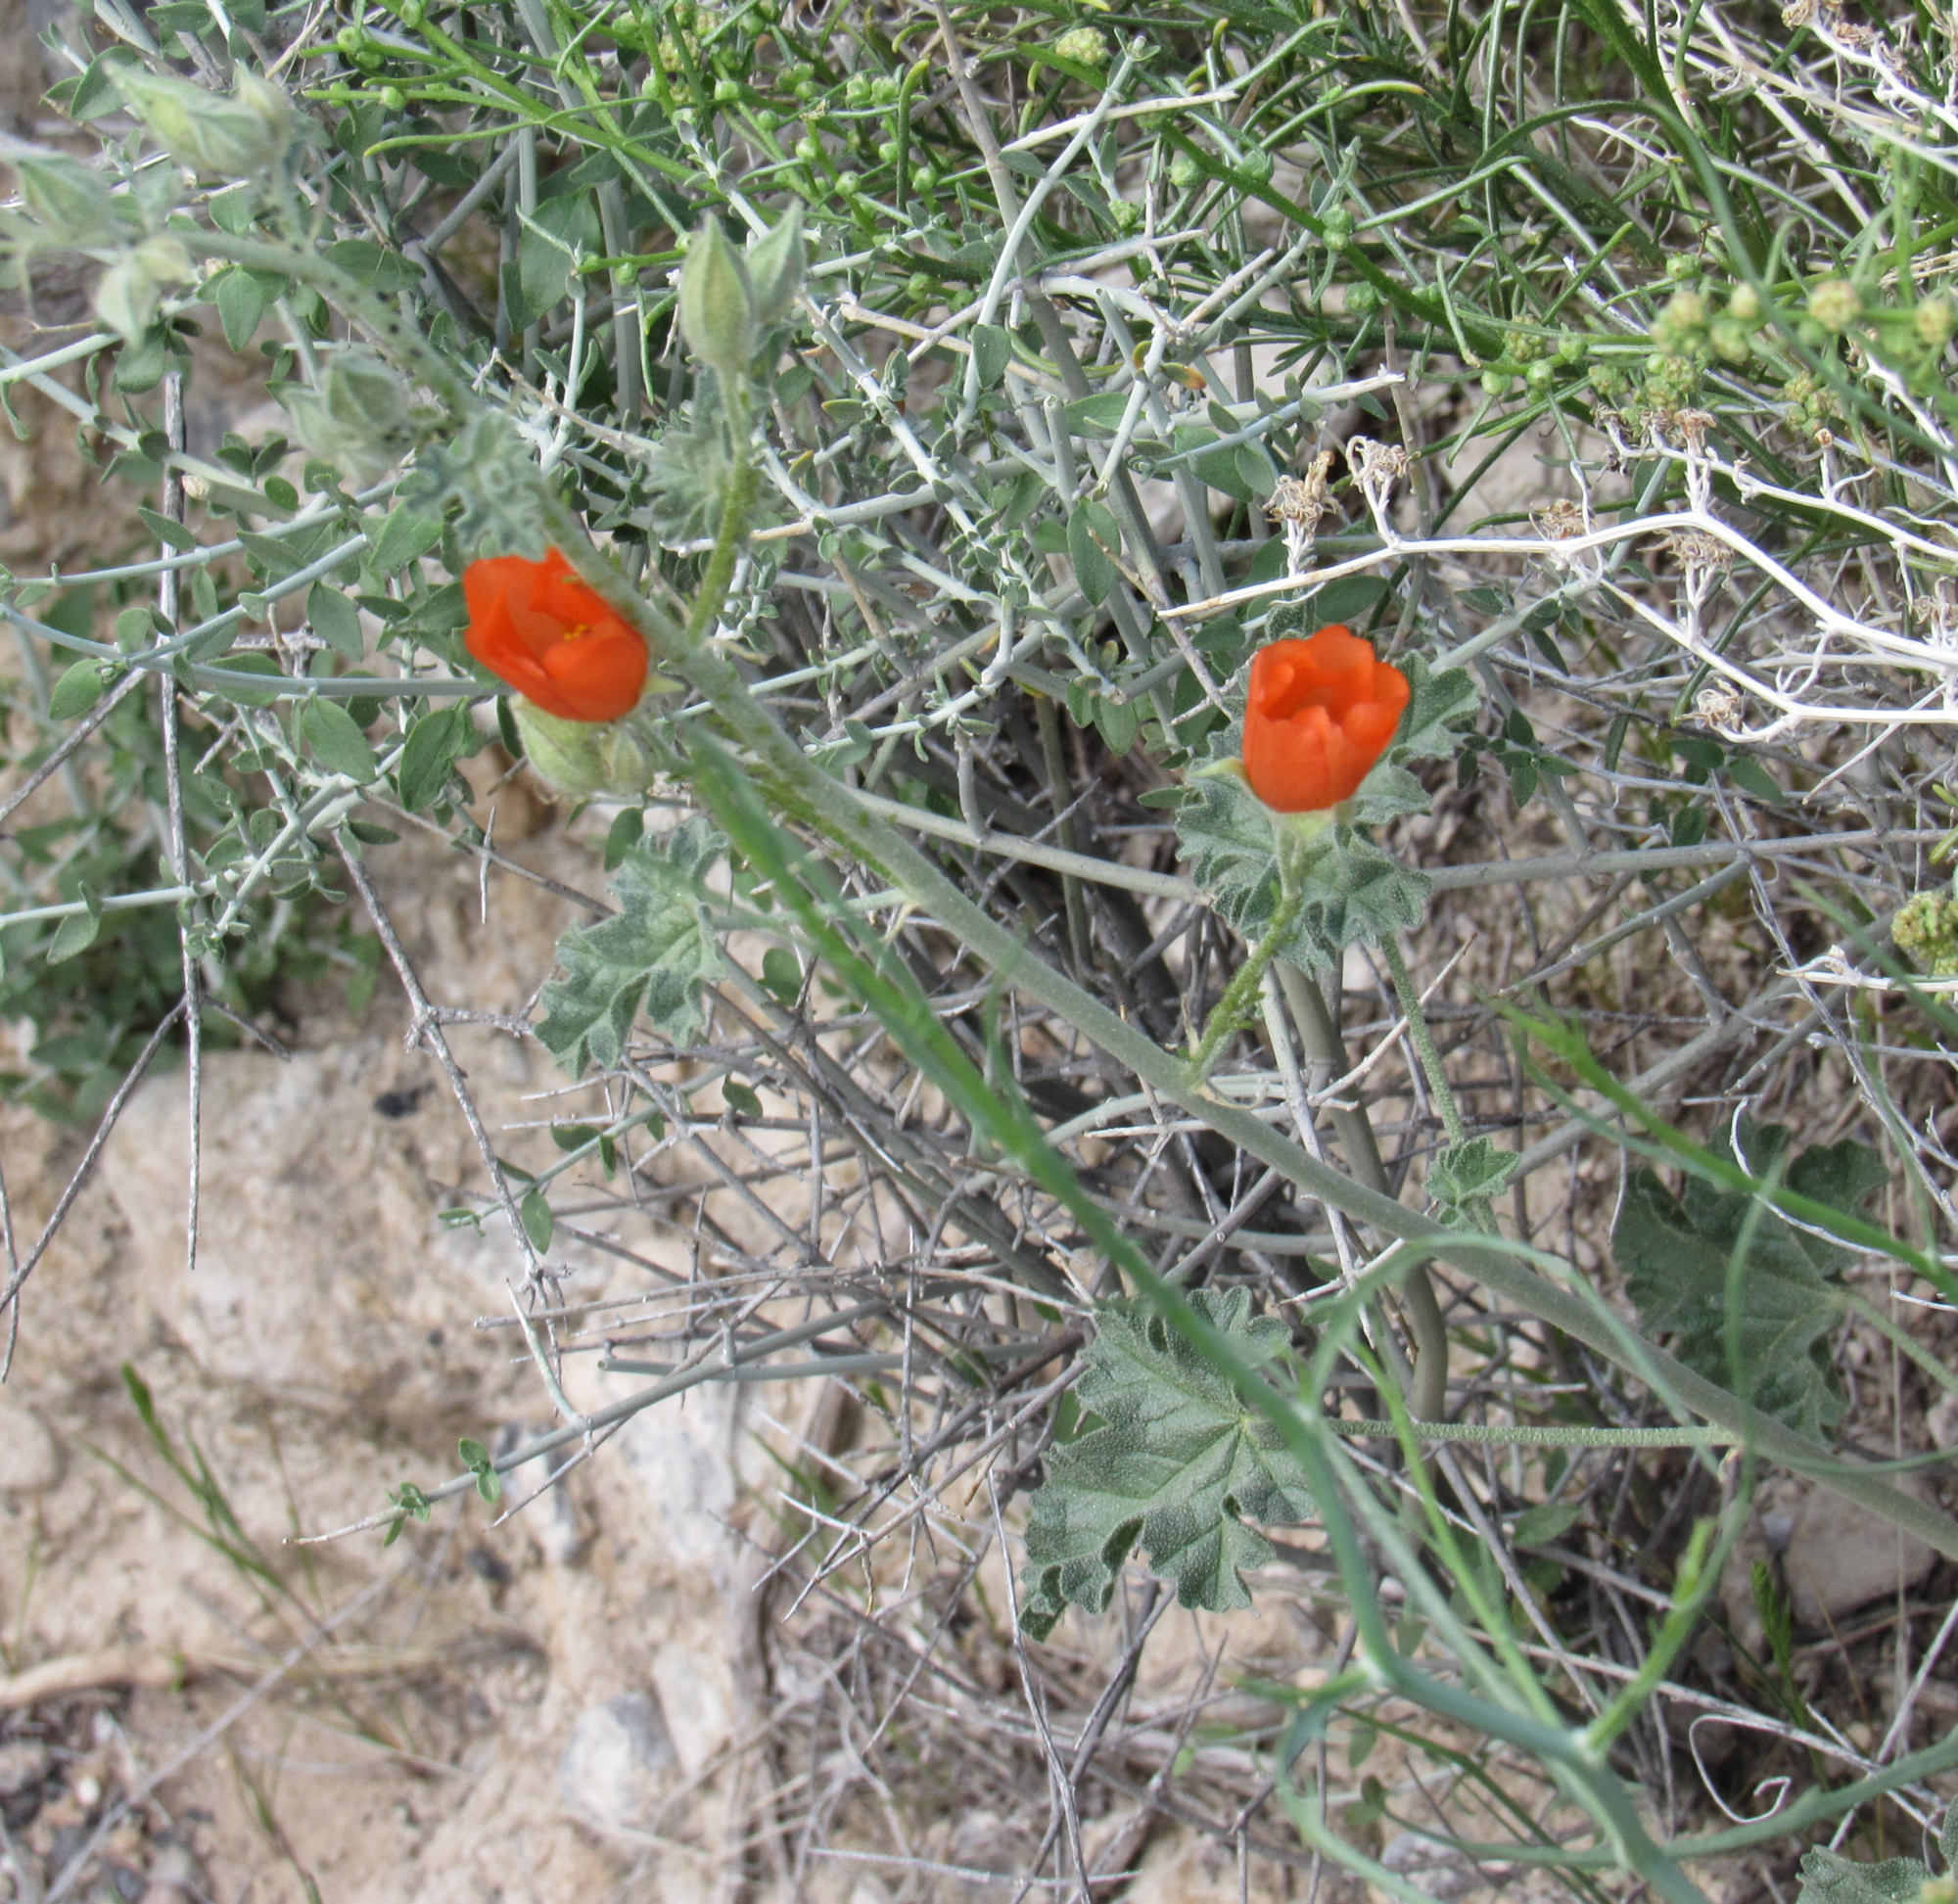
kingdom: Plantae
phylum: Tracheophyta
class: Magnoliopsida
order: Malvales
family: Malvaceae
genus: Sphaeralcea
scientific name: Sphaeralcea ambigua
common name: Apricot globe-mallow
